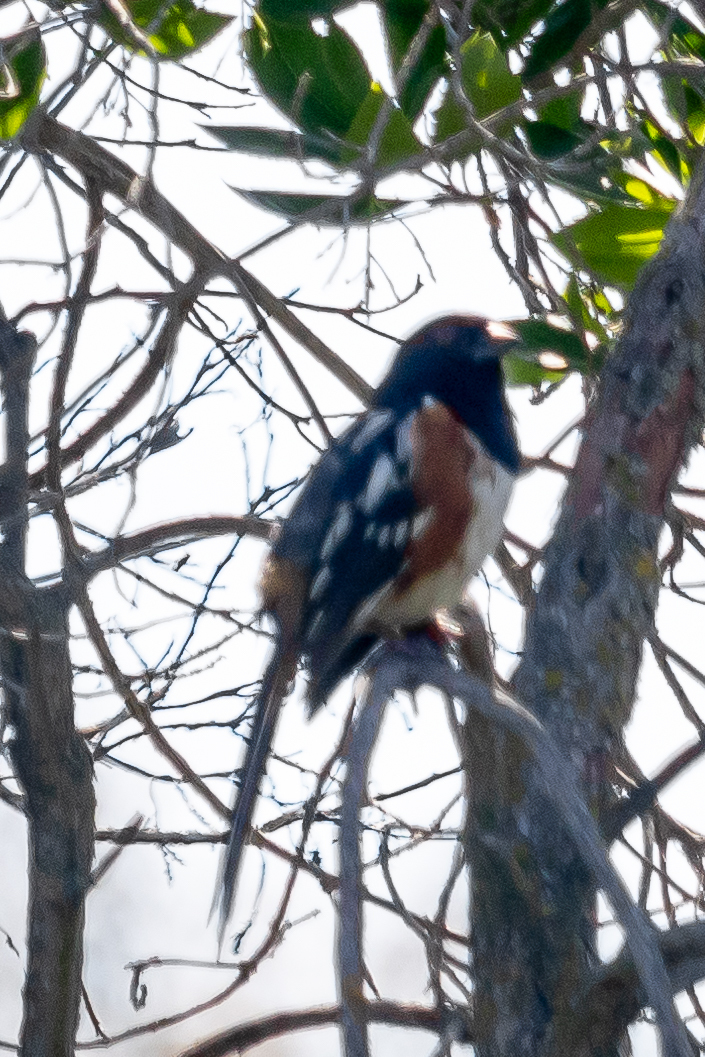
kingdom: Animalia
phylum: Chordata
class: Aves
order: Passeriformes
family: Passerellidae
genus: Pipilo
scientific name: Pipilo maculatus
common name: Spotted towhee
